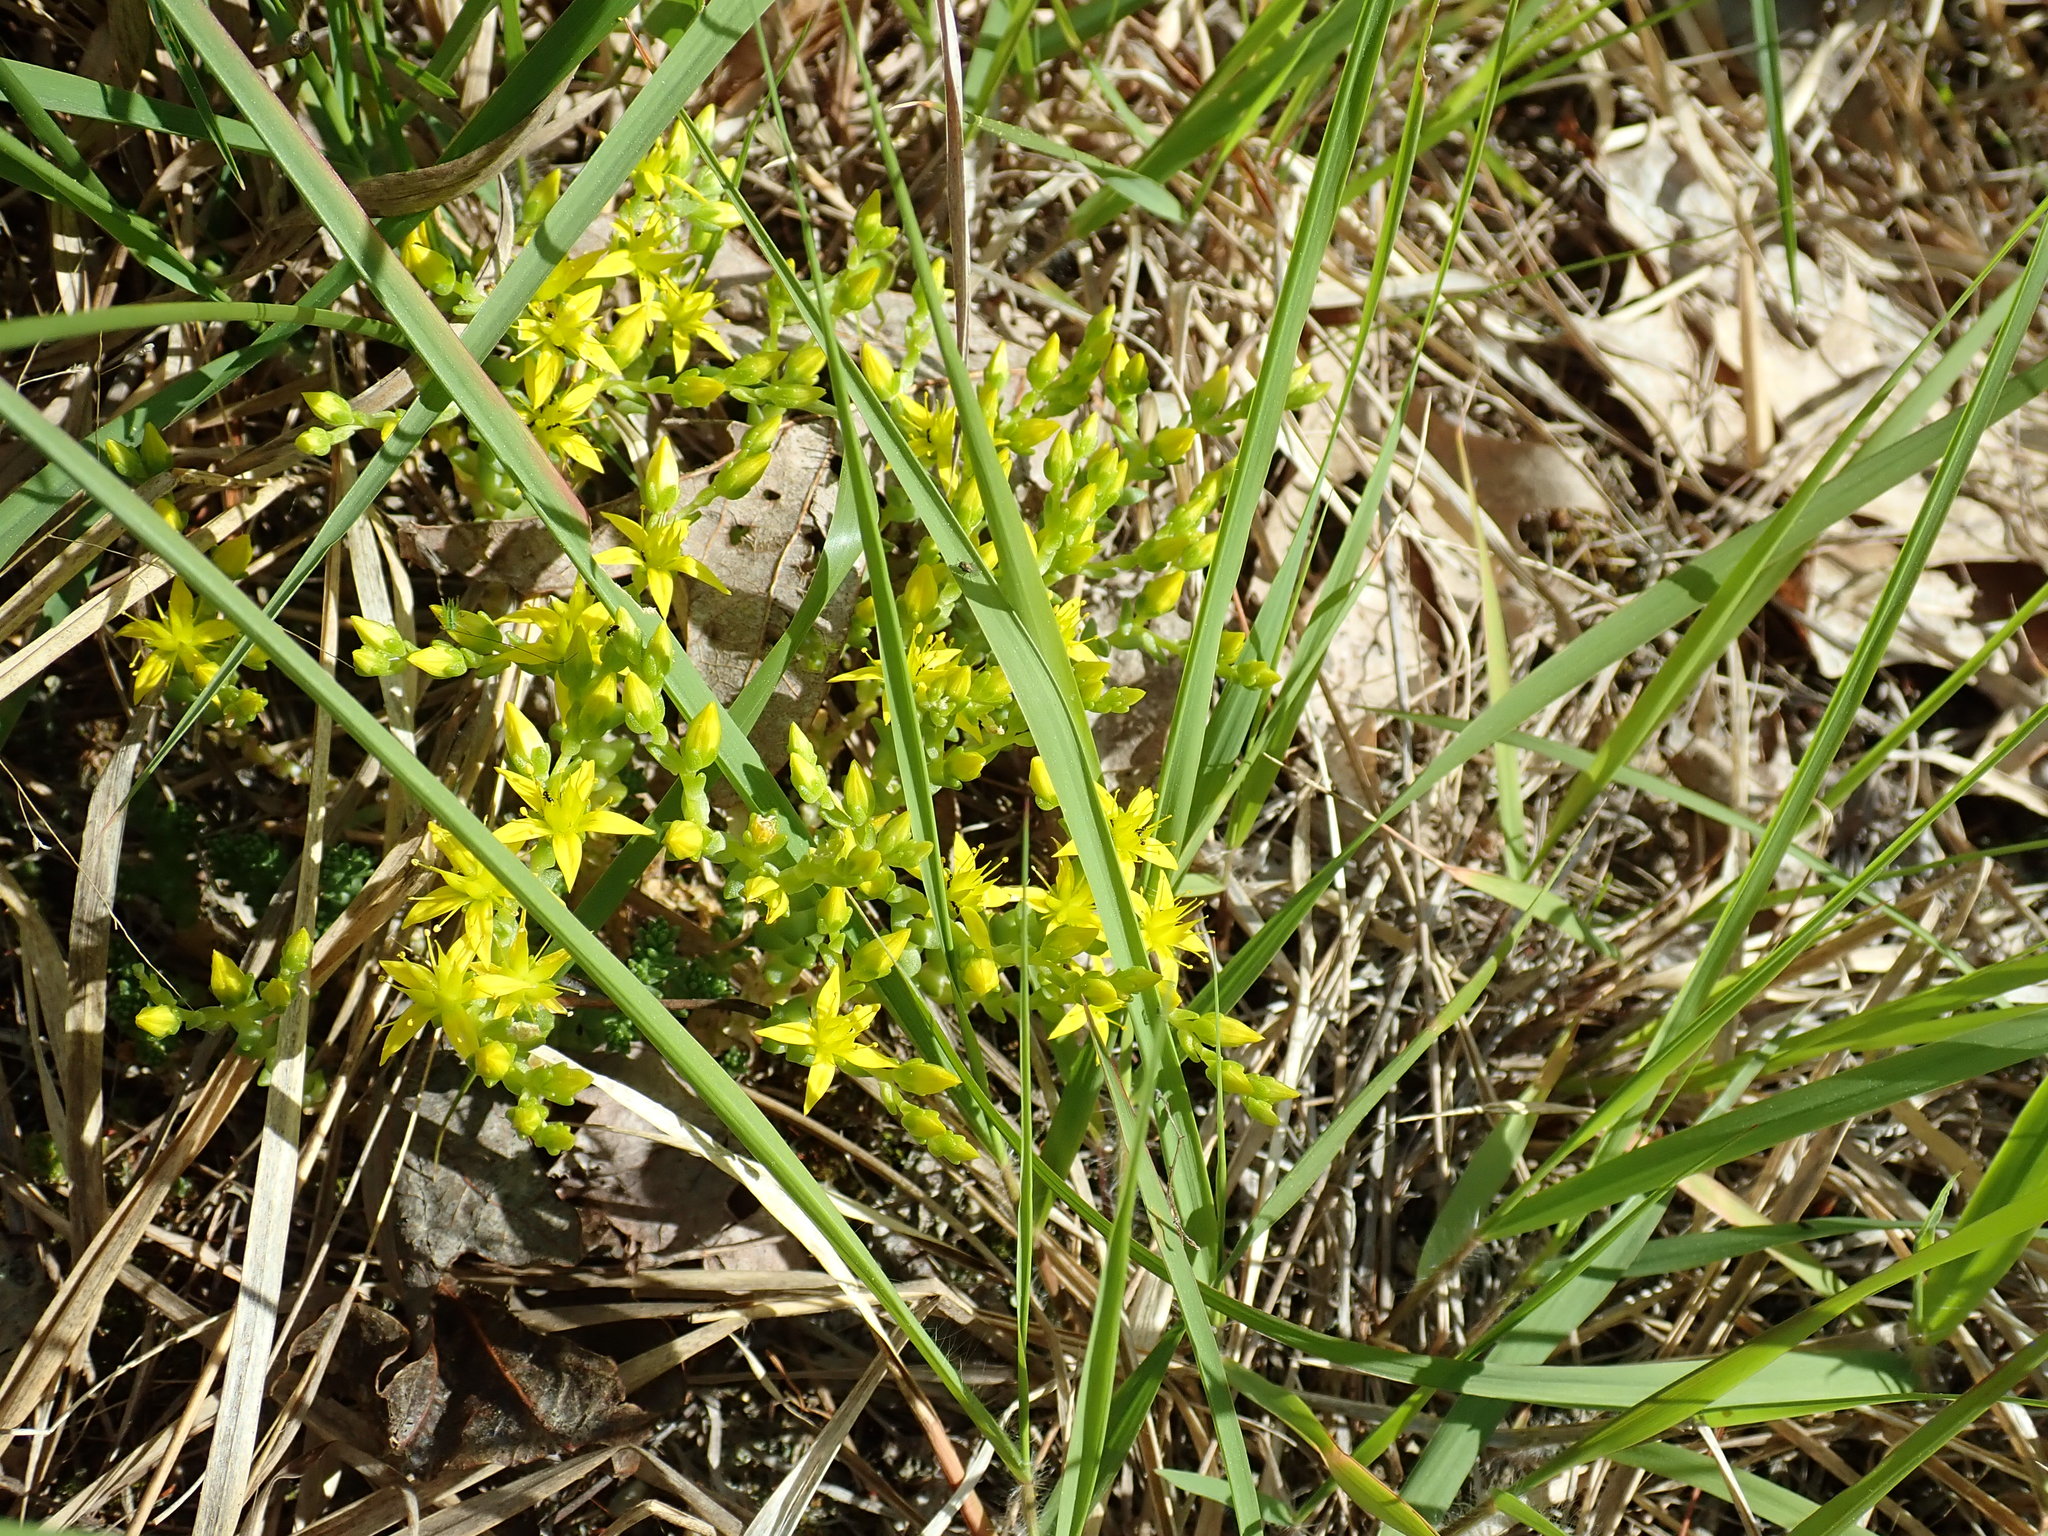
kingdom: Plantae
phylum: Tracheophyta
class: Magnoliopsida
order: Saxifragales
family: Crassulaceae
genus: Sedum
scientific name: Sedum acre
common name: Biting stonecrop
